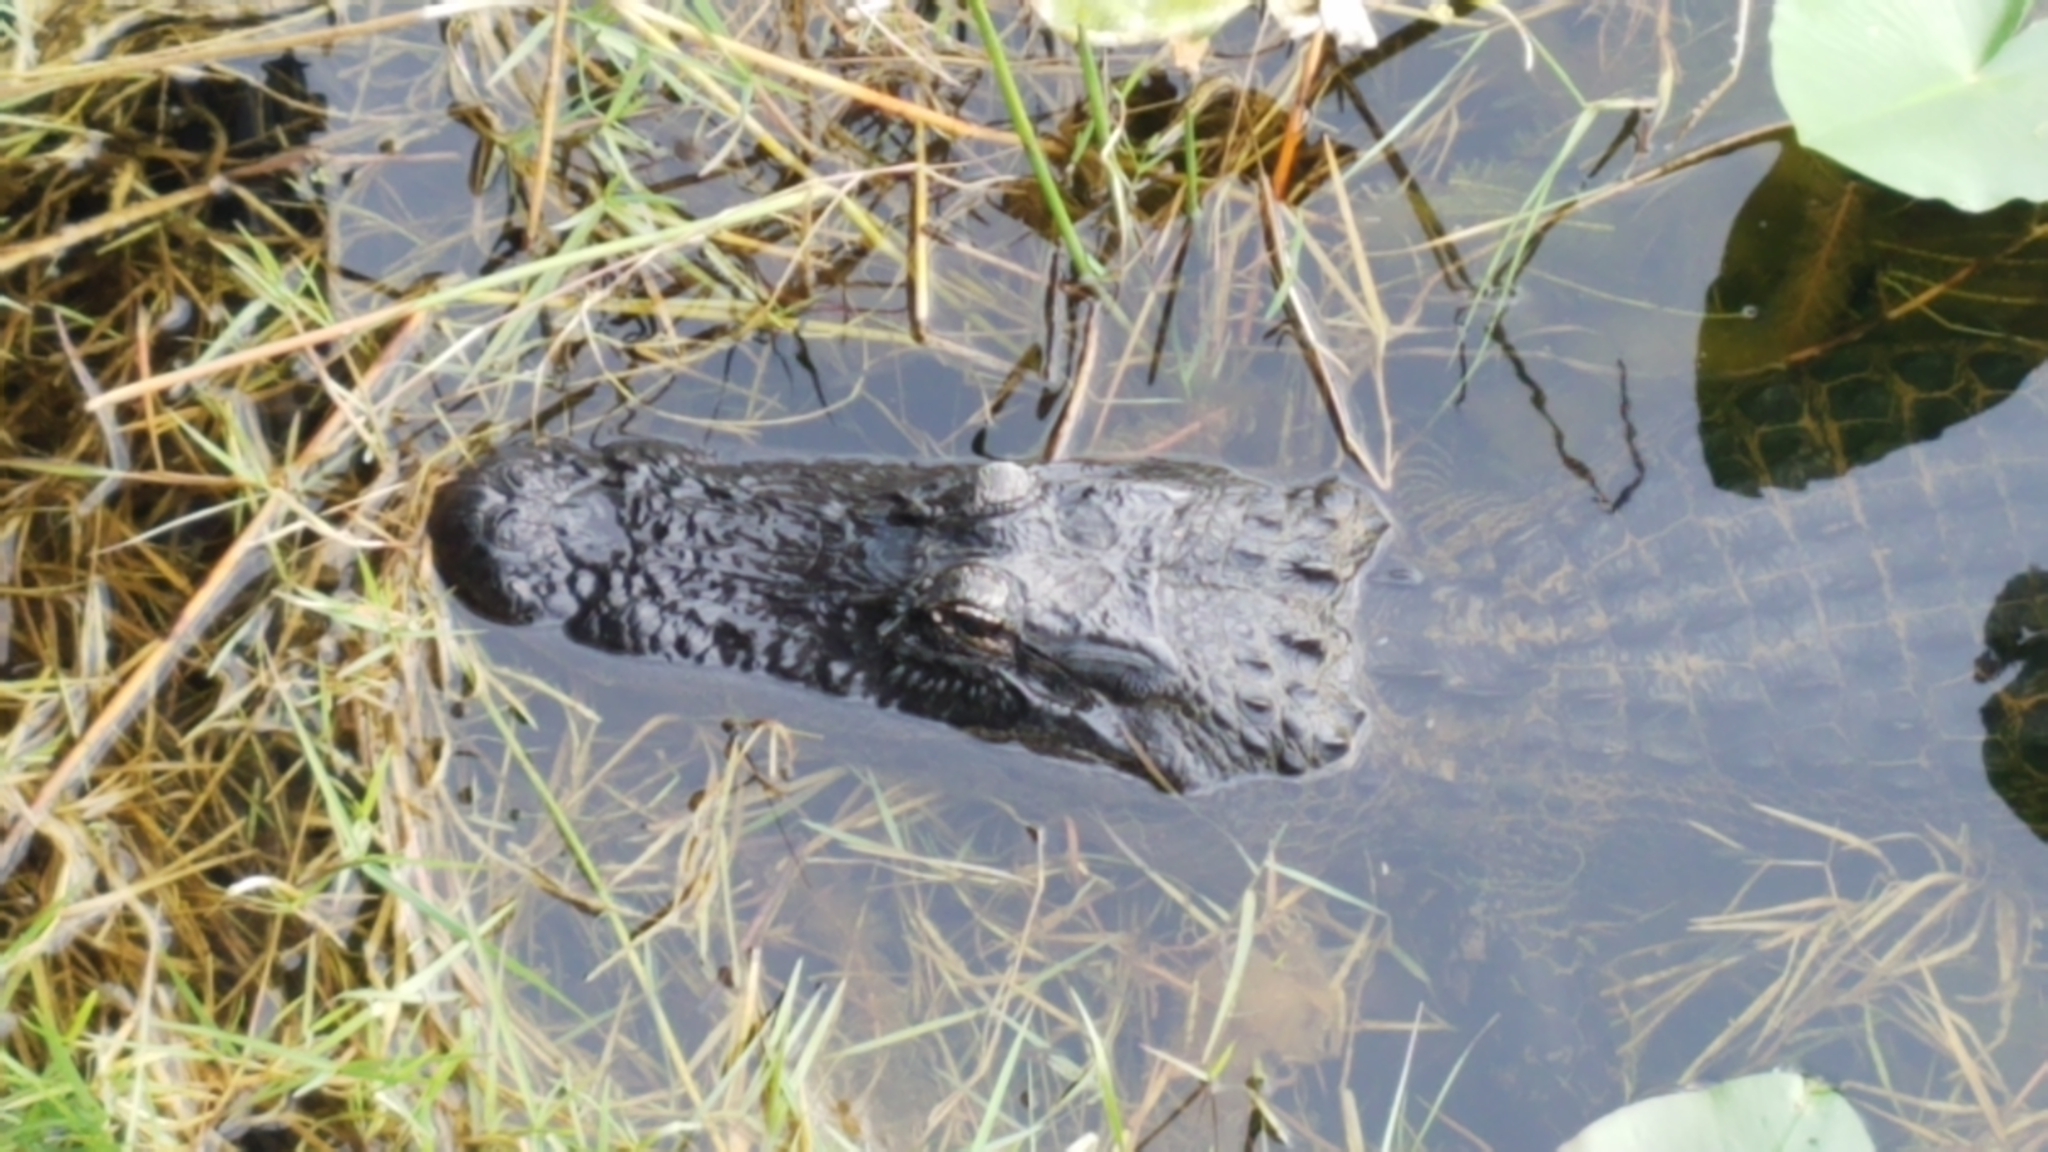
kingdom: Animalia
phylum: Chordata
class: Crocodylia
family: Alligatoridae
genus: Alligator
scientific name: Alligator mississippiensis
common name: American alligator
